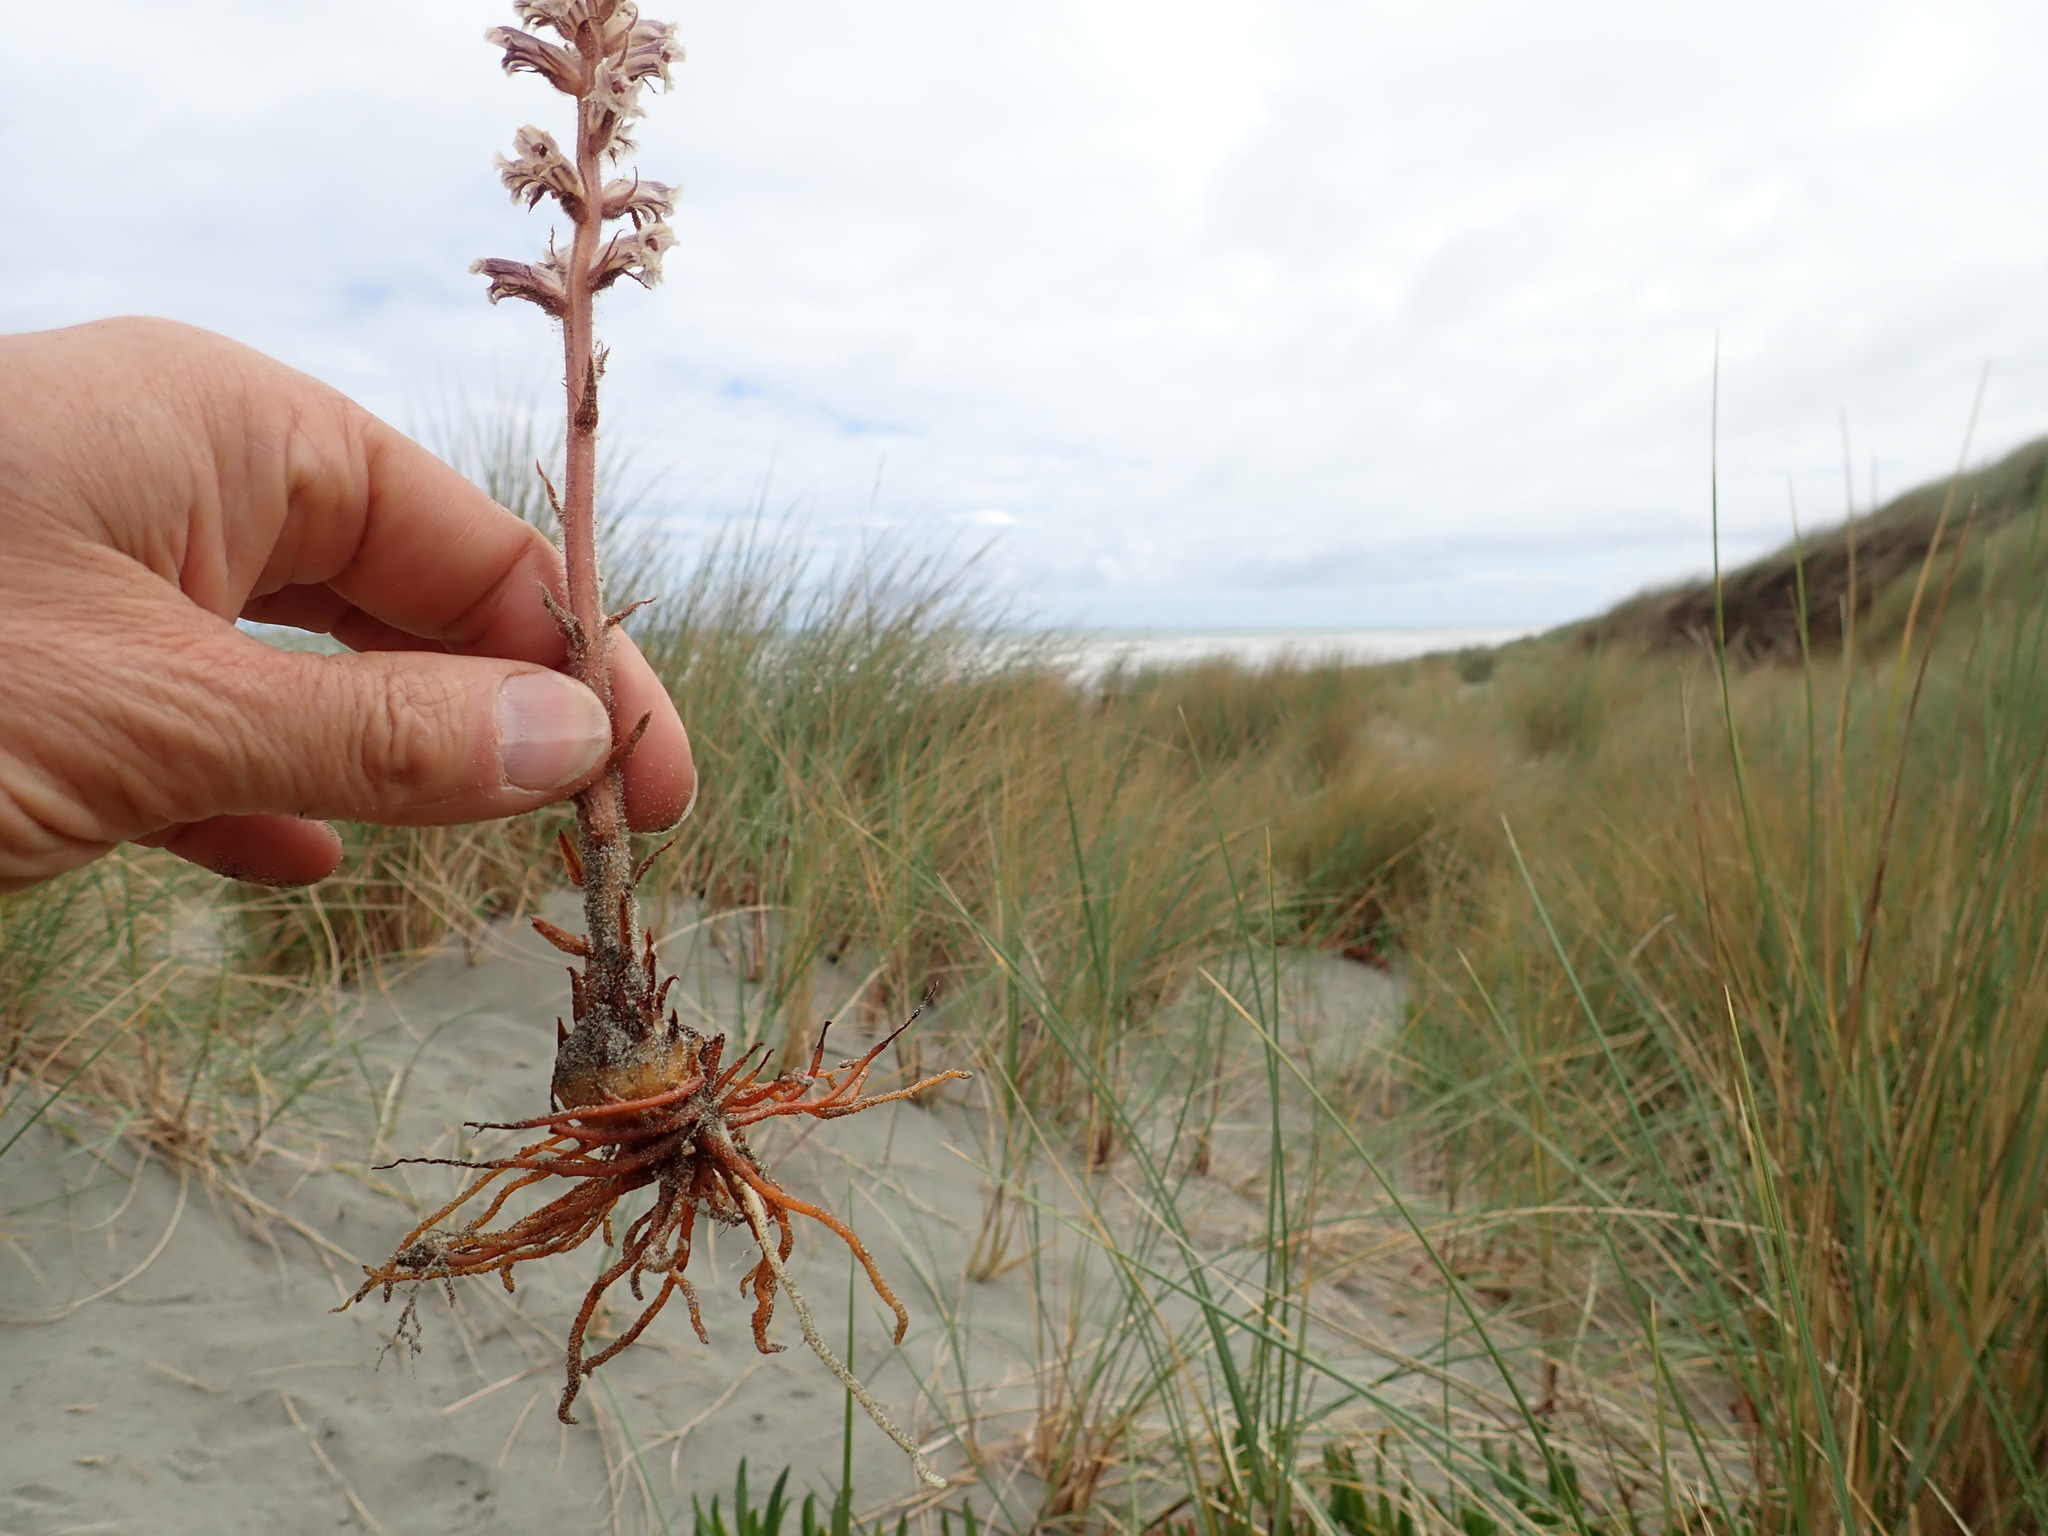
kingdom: Plantae
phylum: Tracheophyta
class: Magnoliopsida
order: Lamiales
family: Orobanchaceae
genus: Orobanche
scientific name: Orobanche minor
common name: Common broomrape
